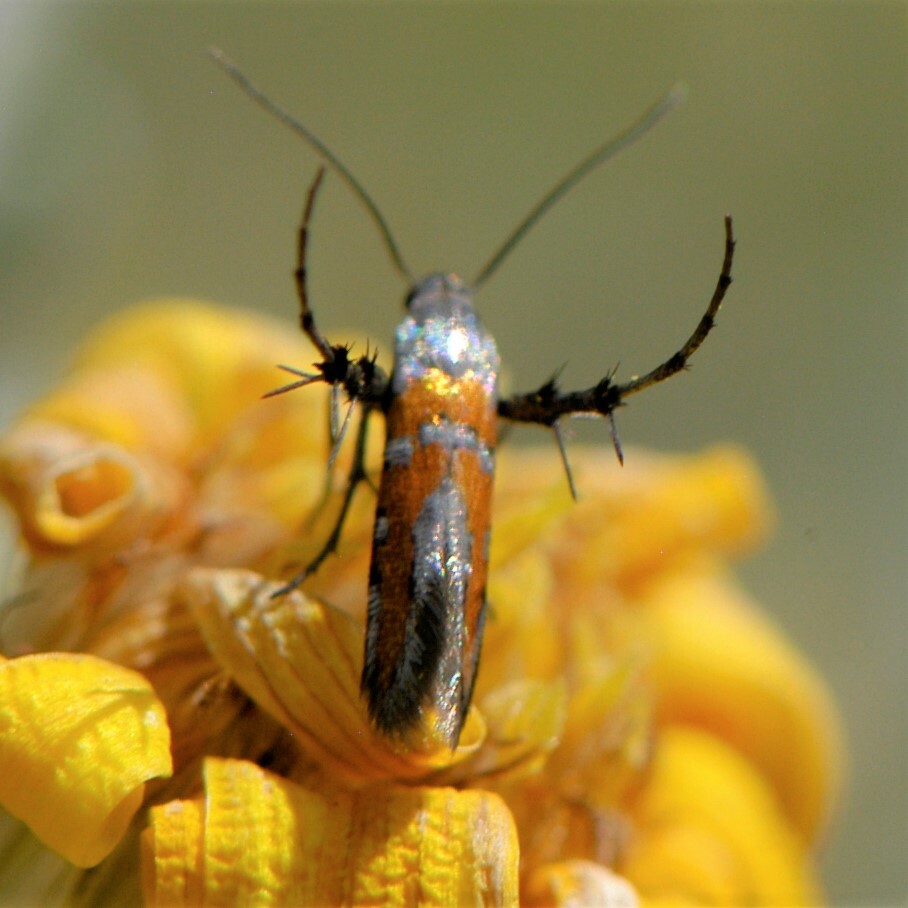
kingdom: Animalia
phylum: Arthropoda
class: Insecta
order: Lepidoptera
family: Heliodinidae
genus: Heliodines
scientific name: Heliodines Aetole tripunctella
